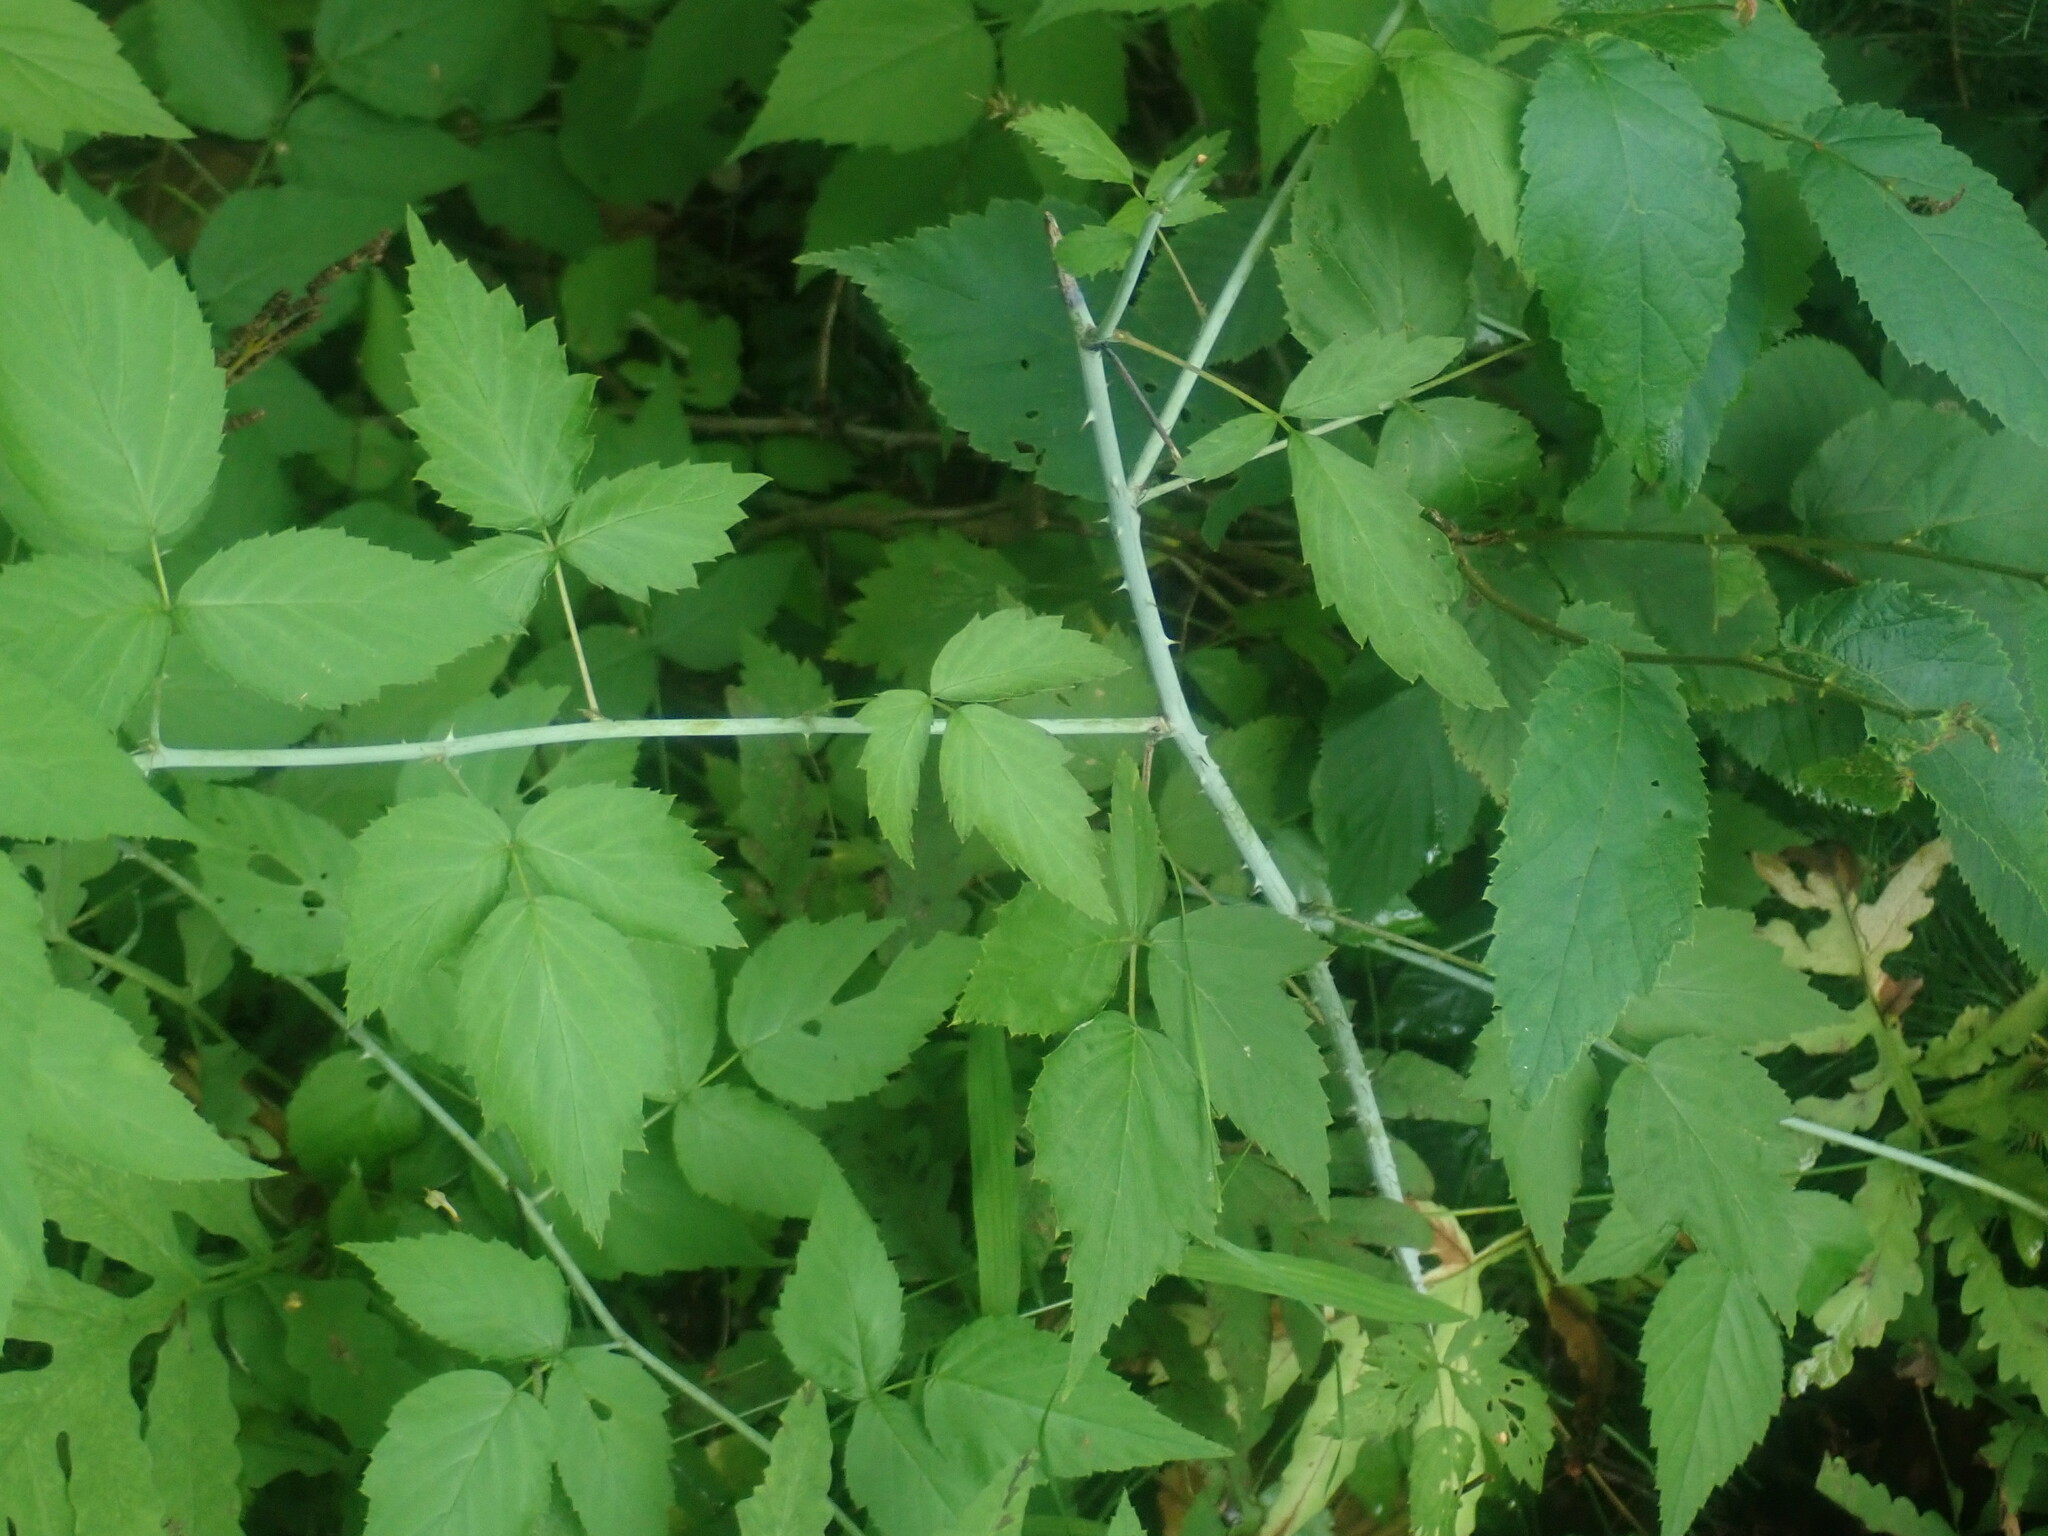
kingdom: Plantae
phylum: Tracheophyta
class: Magnoliopsida
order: Rosales
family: Rosaceae
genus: Rubus
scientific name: Rubus occidentalis
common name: Black raspberry
